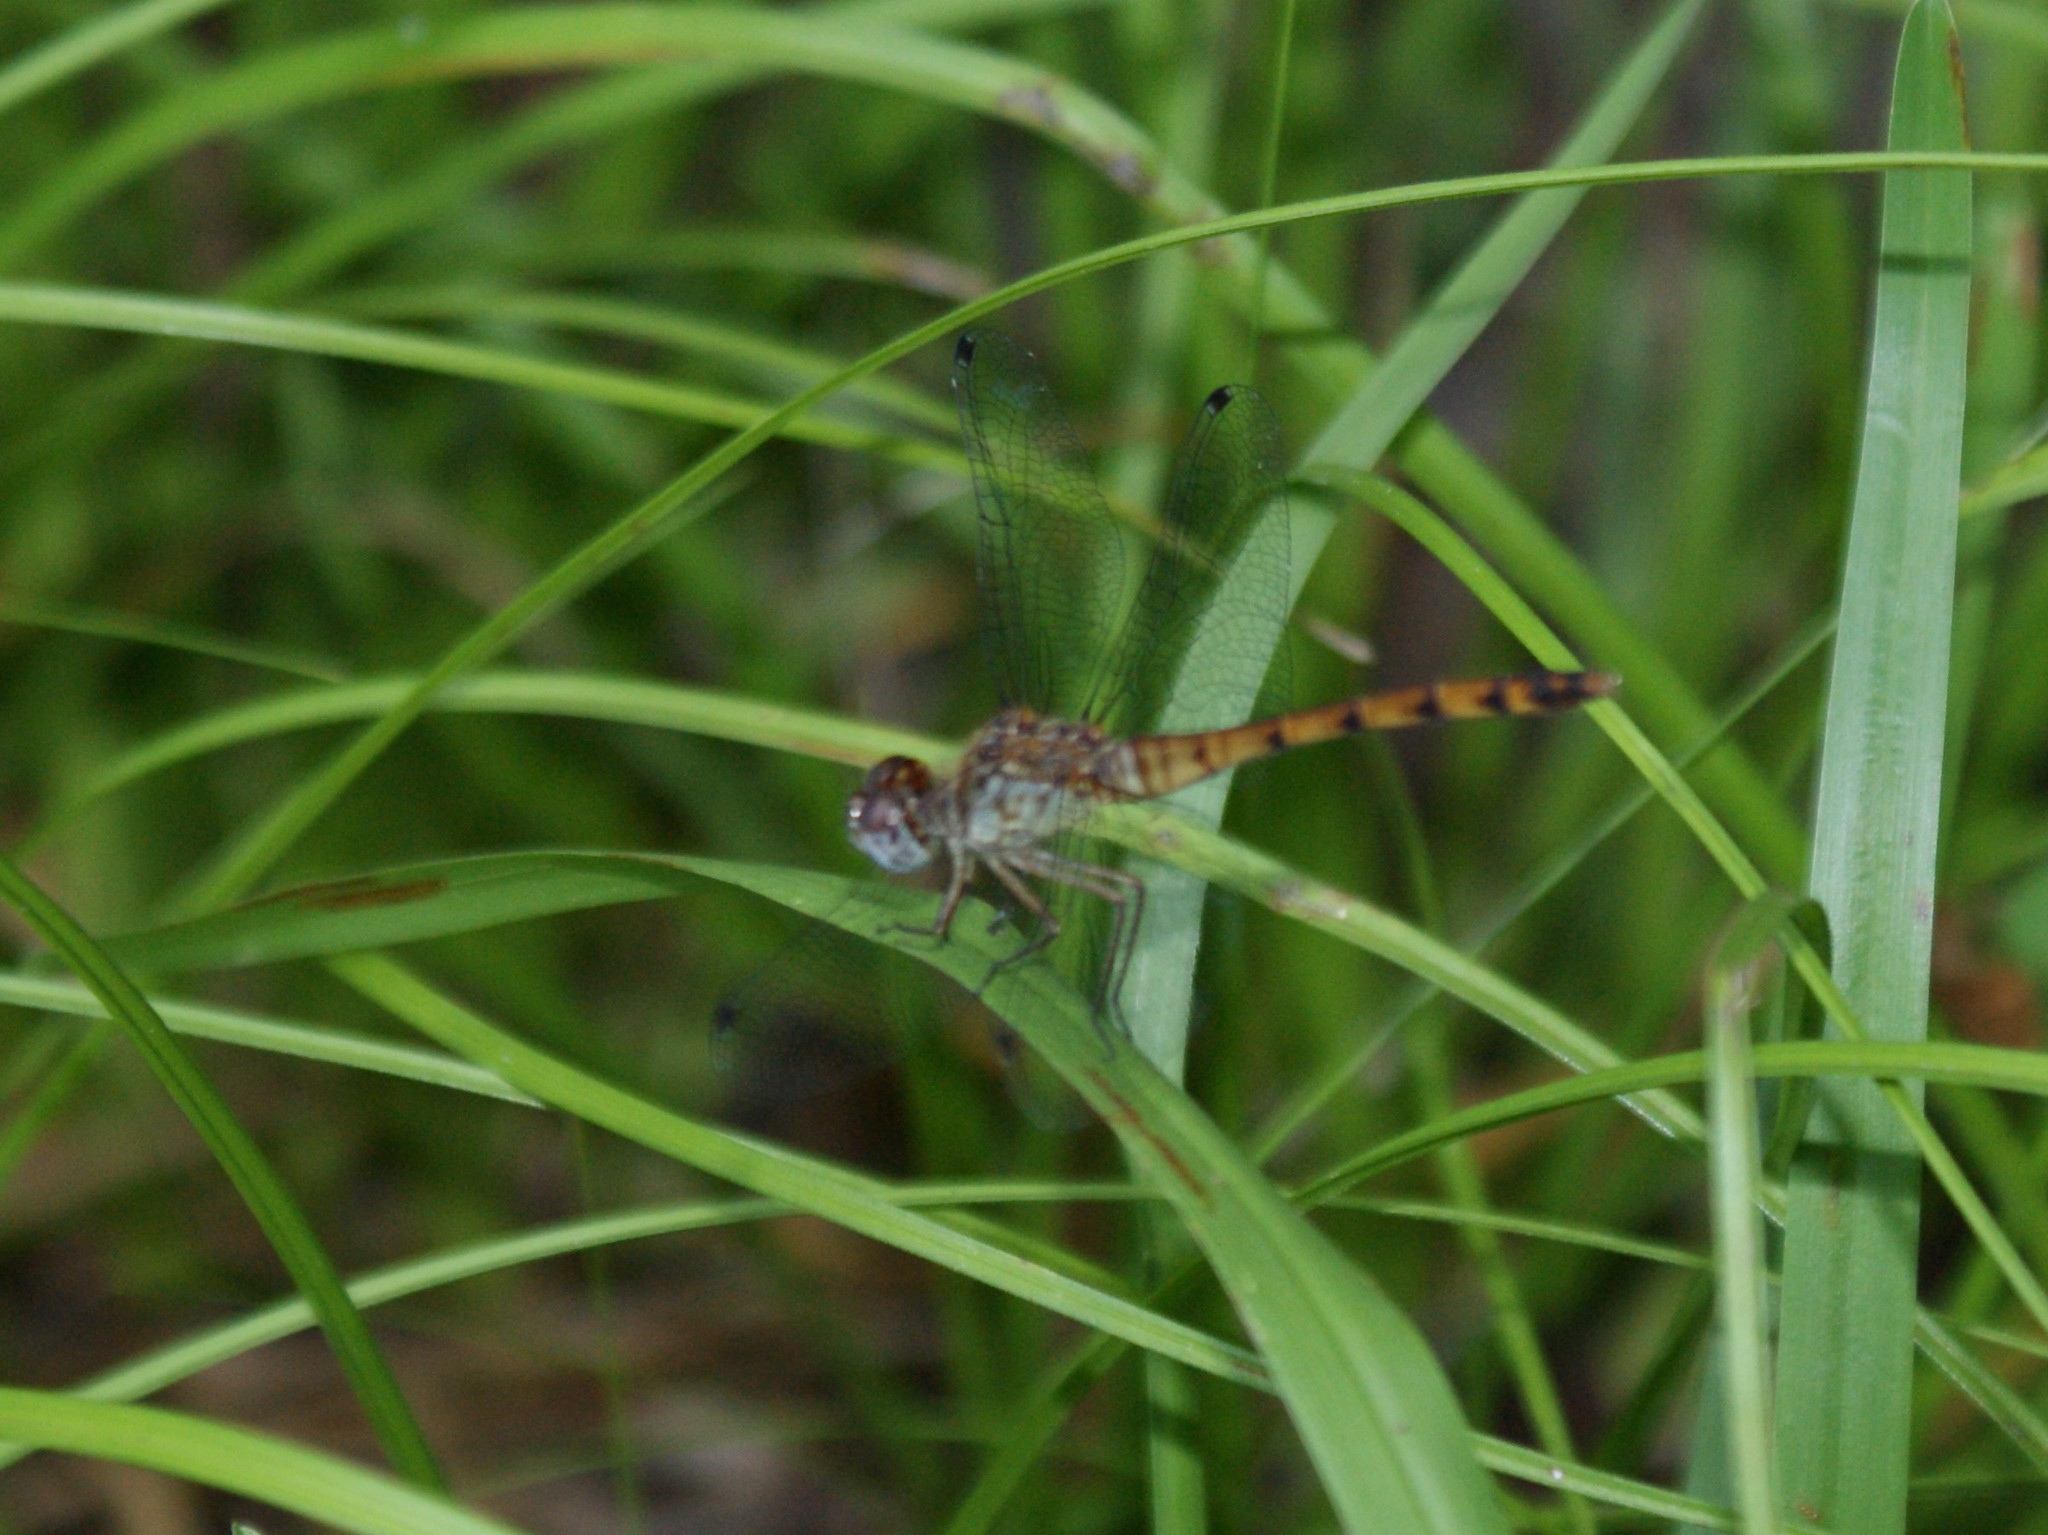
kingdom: Animalia
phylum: Arthropoda
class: Insecta
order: Odonata
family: Libellulidae
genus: Sympetrum
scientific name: Sympetrum ambiguum
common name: Blue-faced meadowhawk
